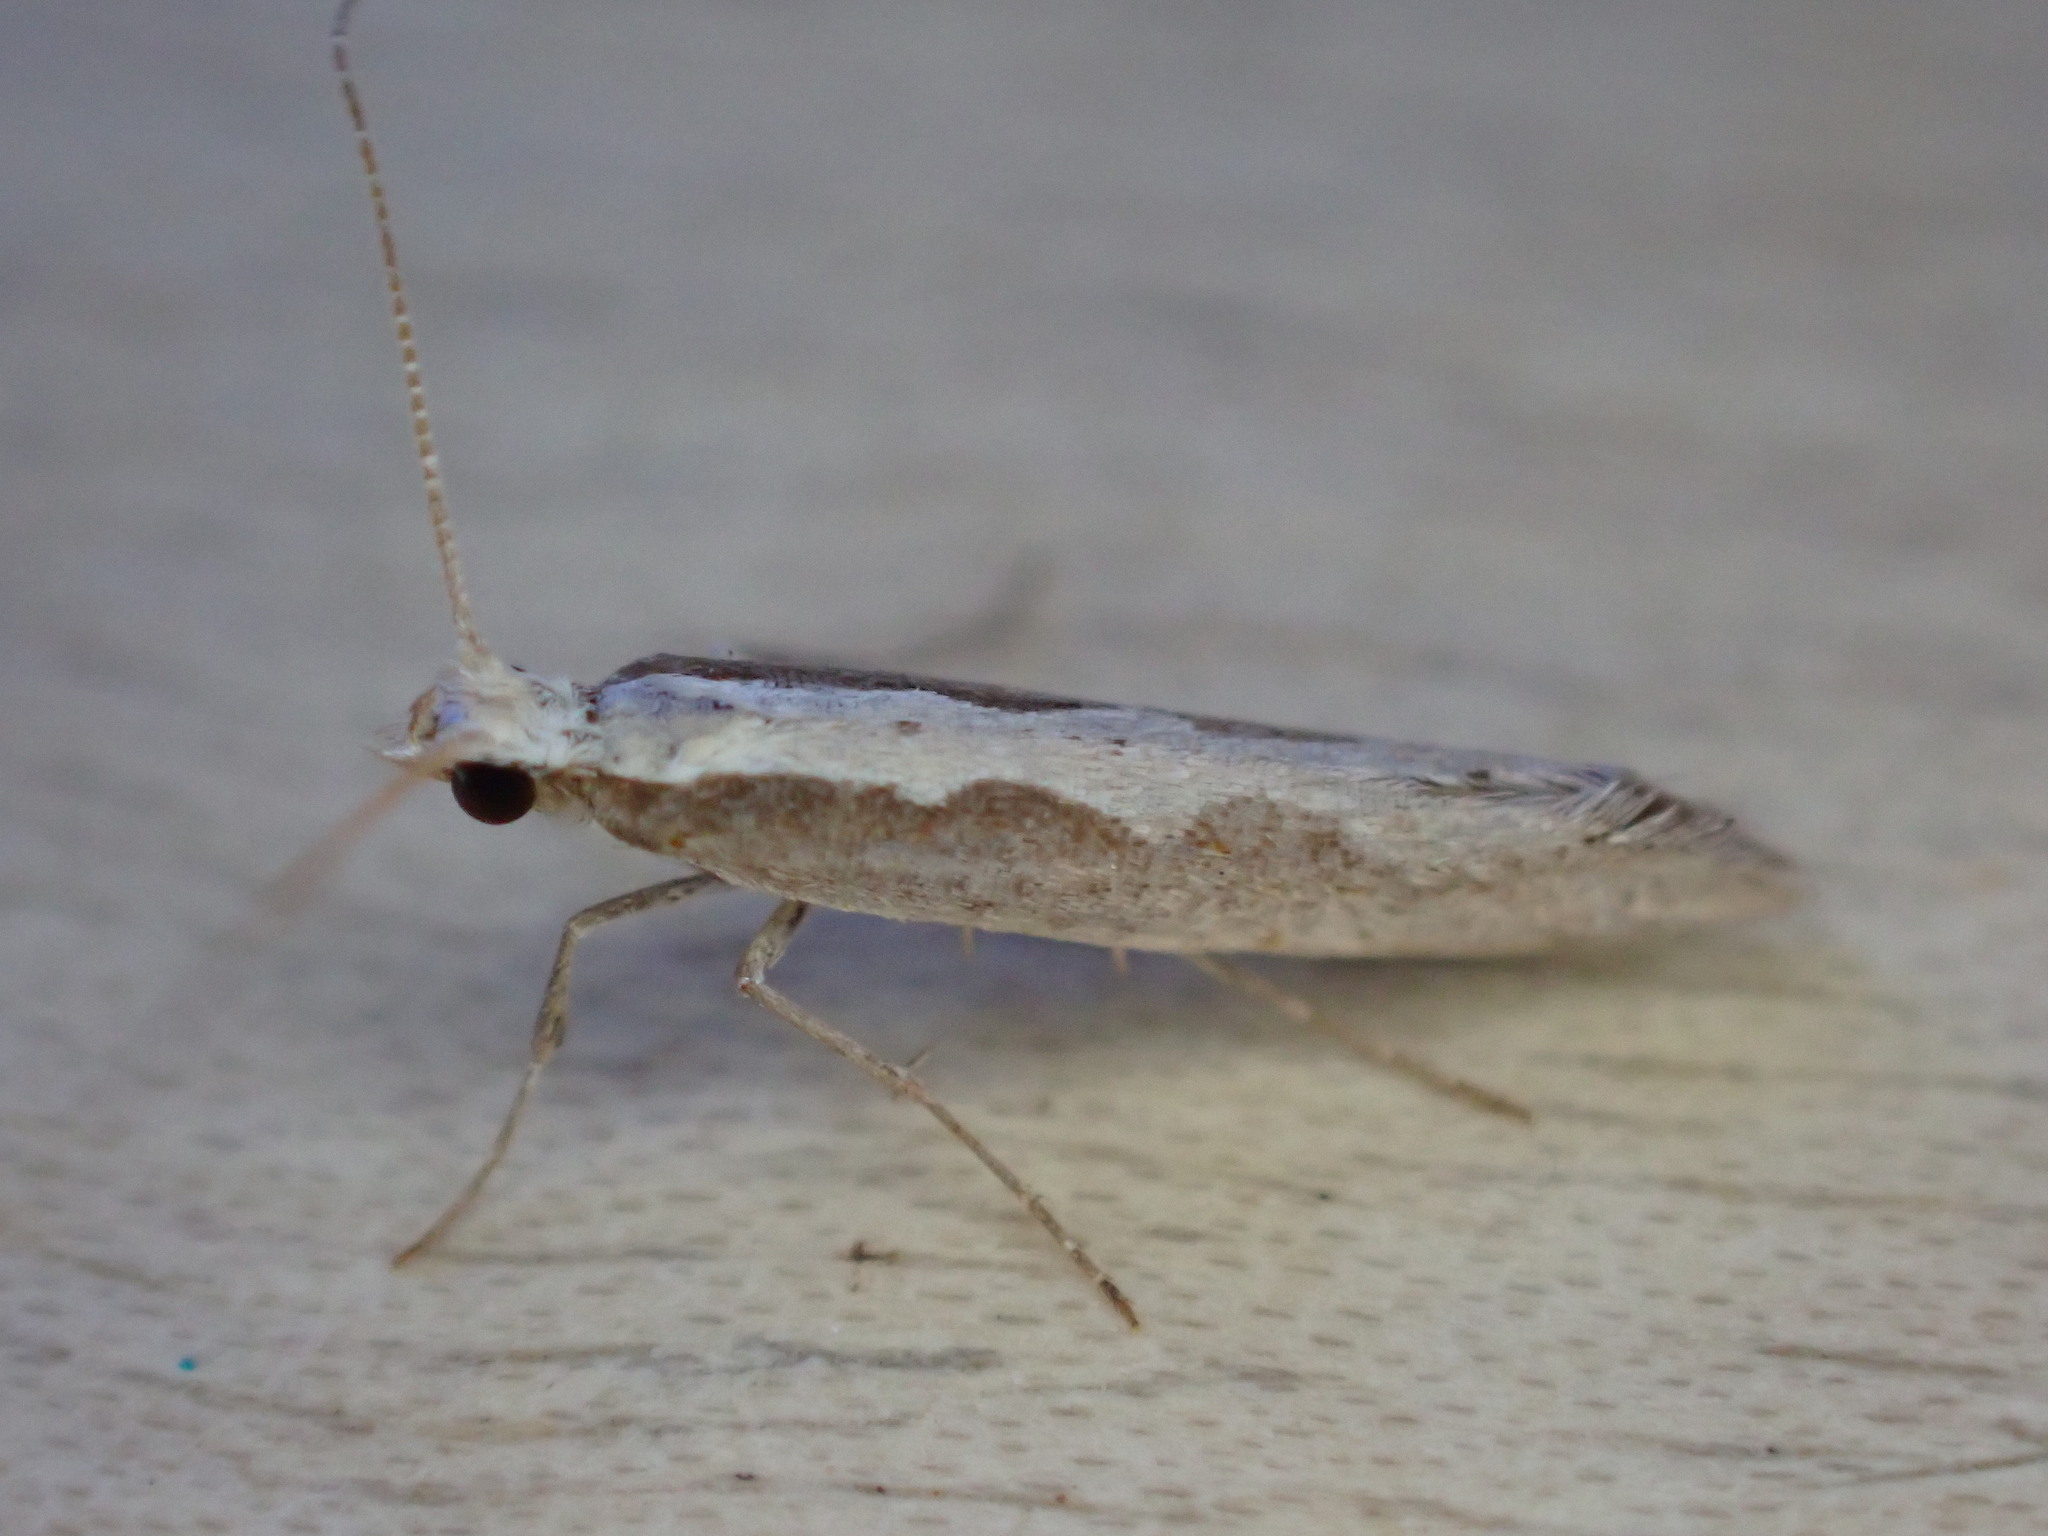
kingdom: Animalia
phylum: Arthropoda
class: Insecta
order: Lepidoptera
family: Plutellidae
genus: Plutella
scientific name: Plutella xylostella
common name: Diamond-back moth
